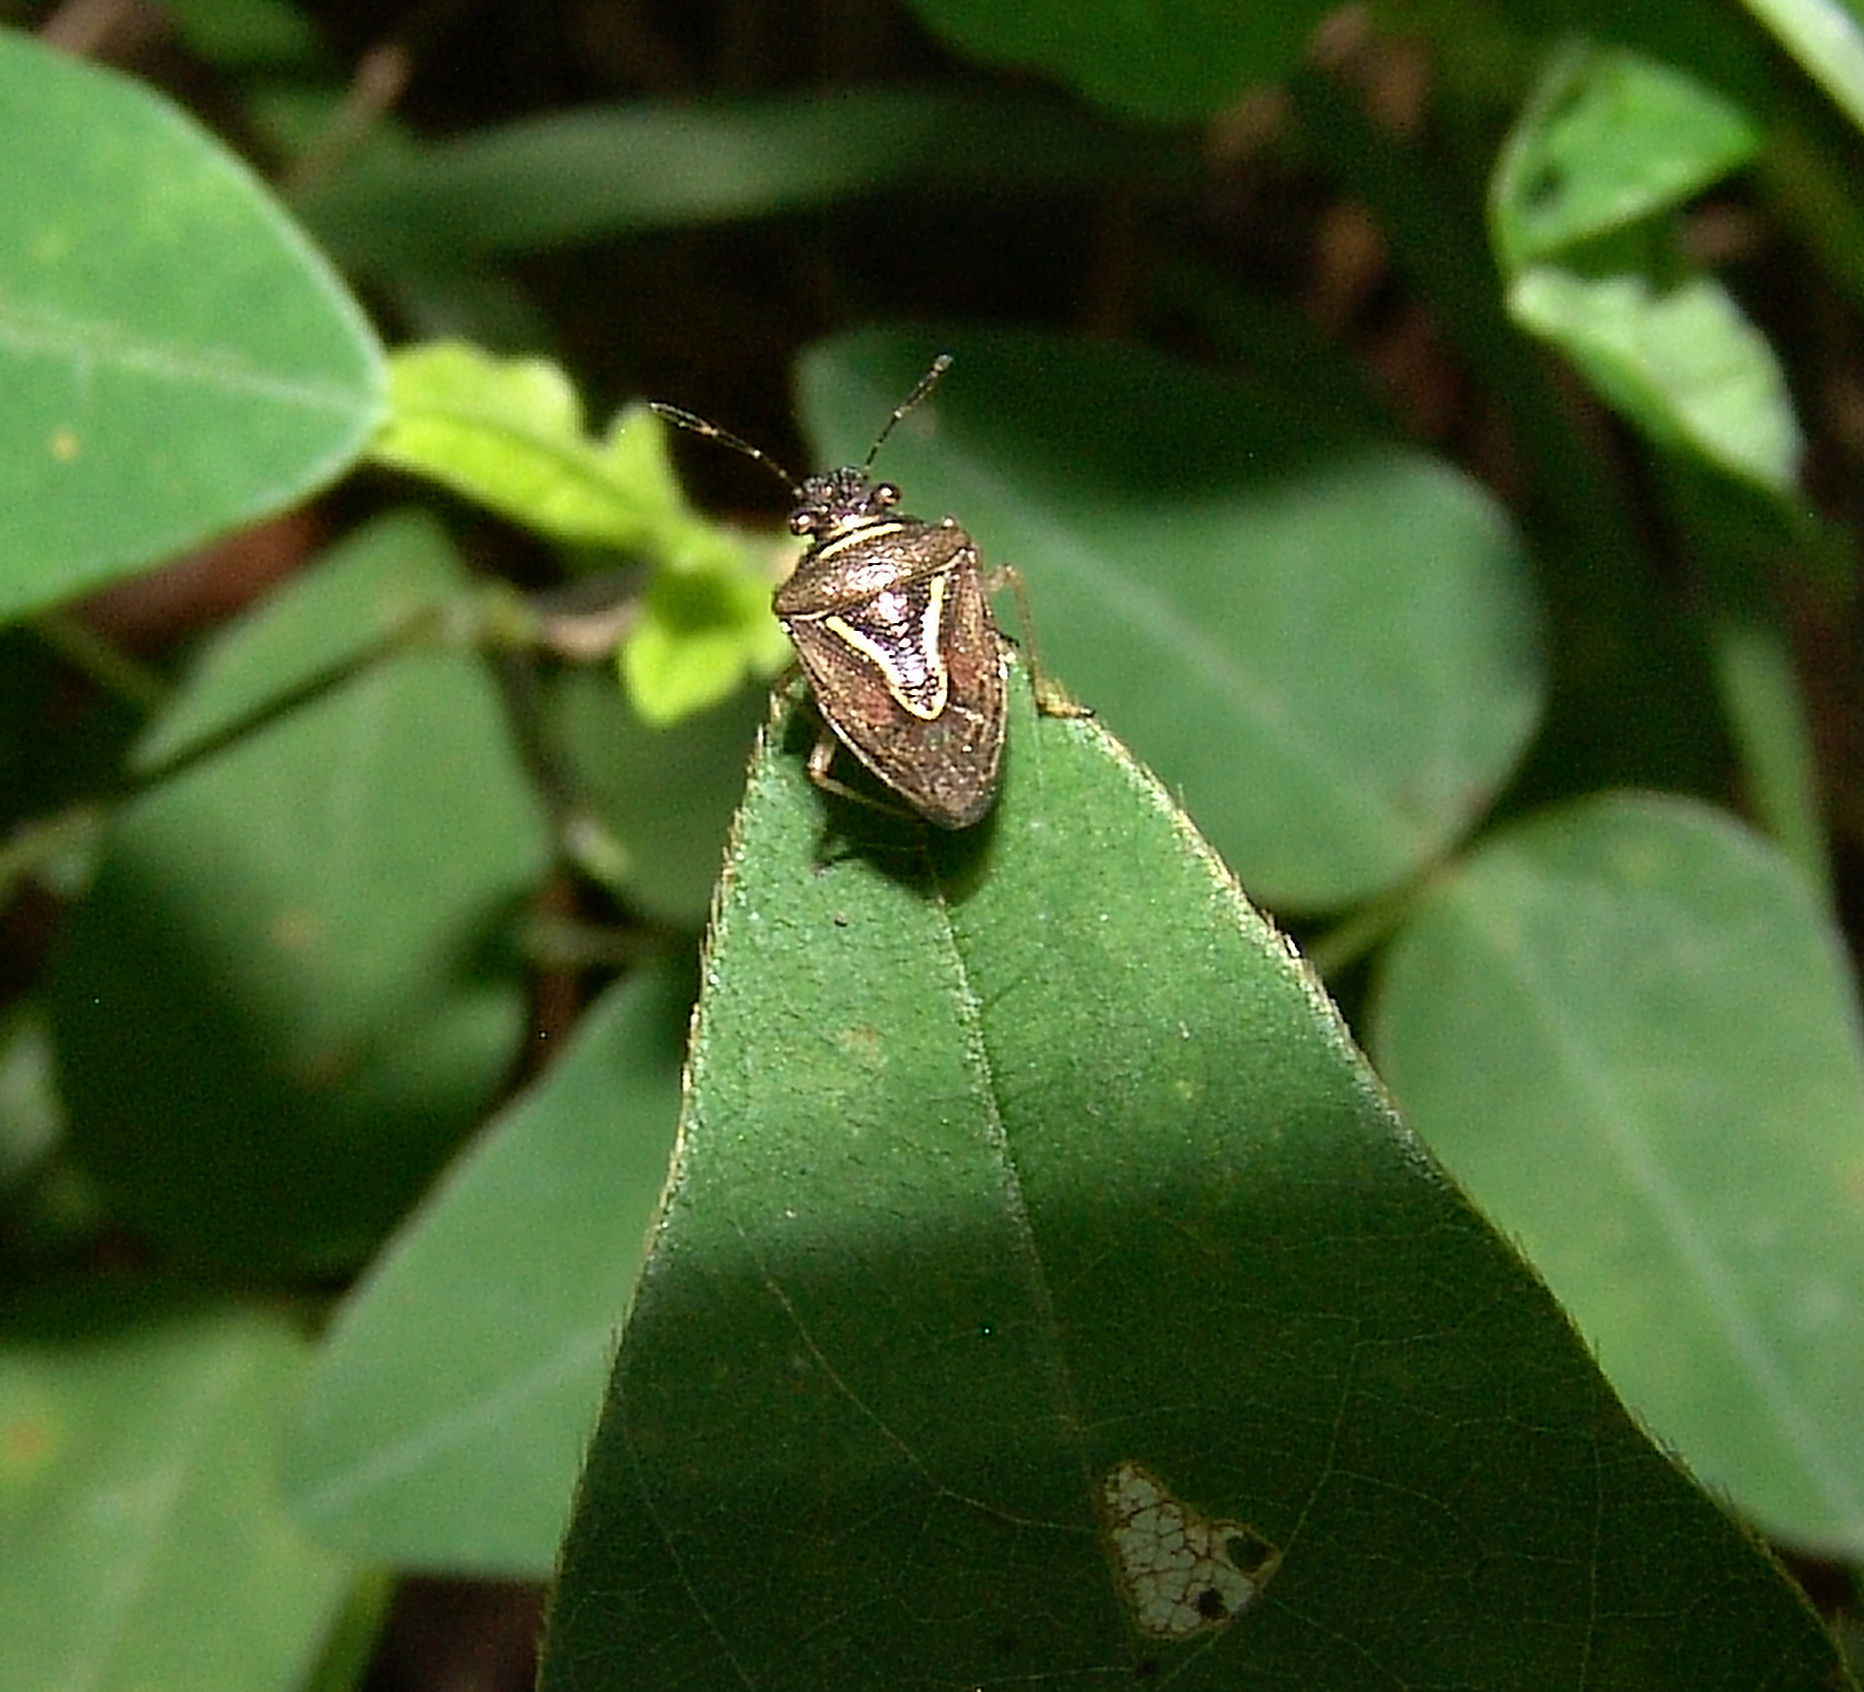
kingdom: Animalia
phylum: Arthropoda
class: Insecta
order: Hemiptera
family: Pentatomidae
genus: Mormidea
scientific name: Mormidea lugens
